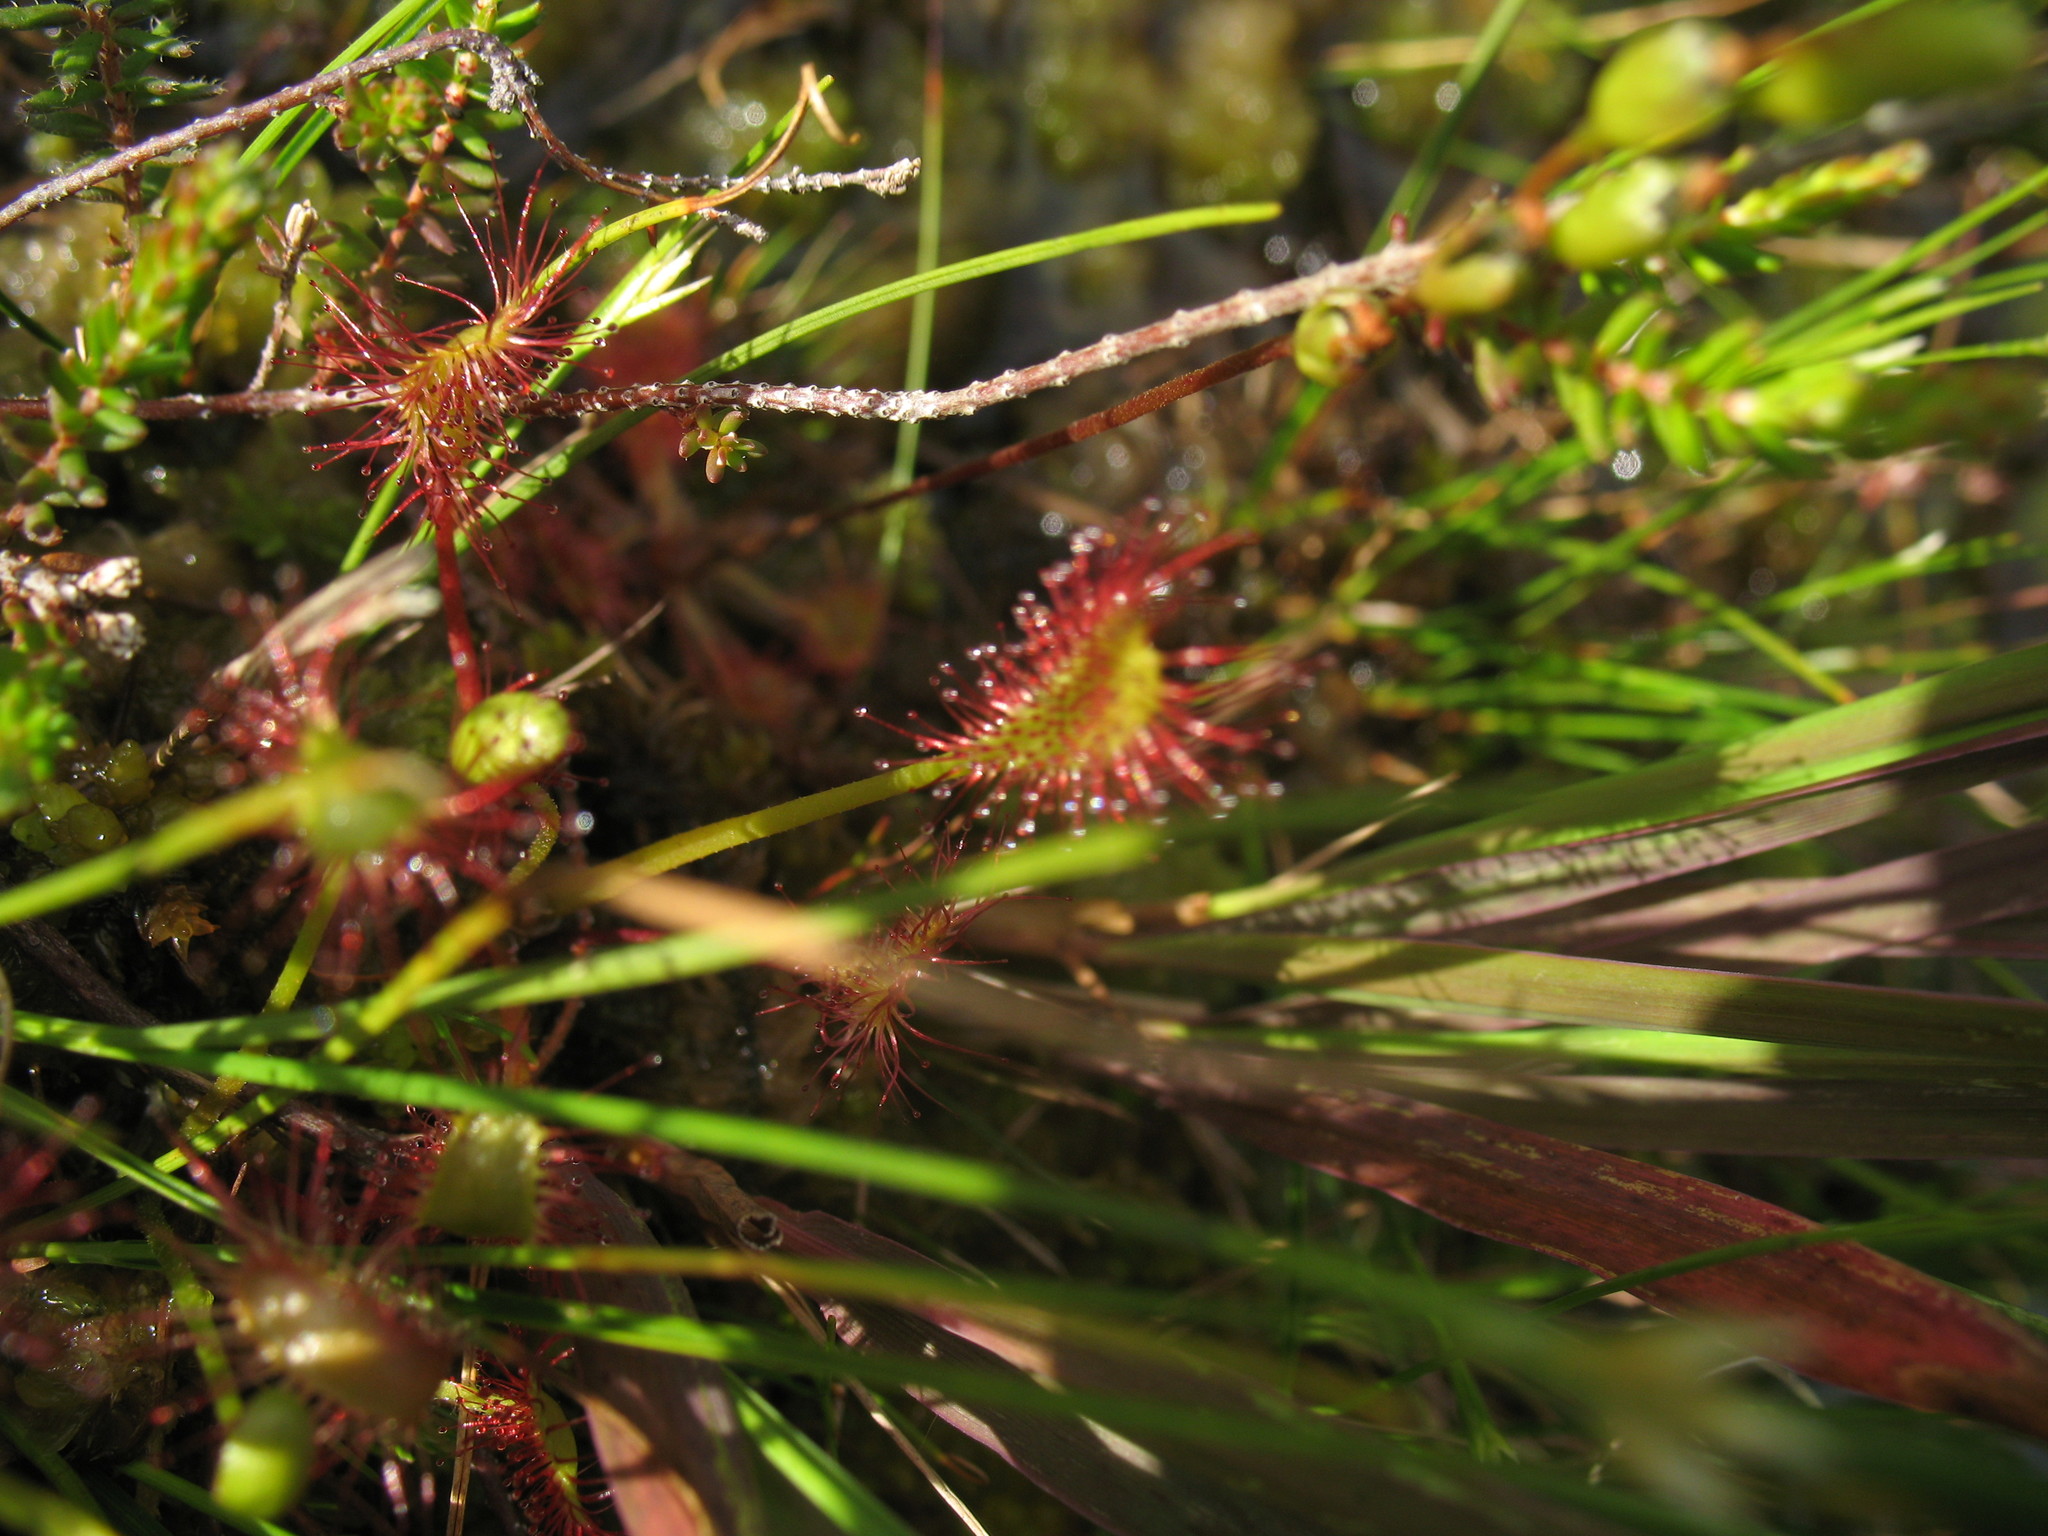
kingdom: Plantae
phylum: Tracheophyta
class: Magnoliopsida
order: Caryophyllales
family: Droseraceae
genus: Drosera
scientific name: Drosera anglica
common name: Great sundew
